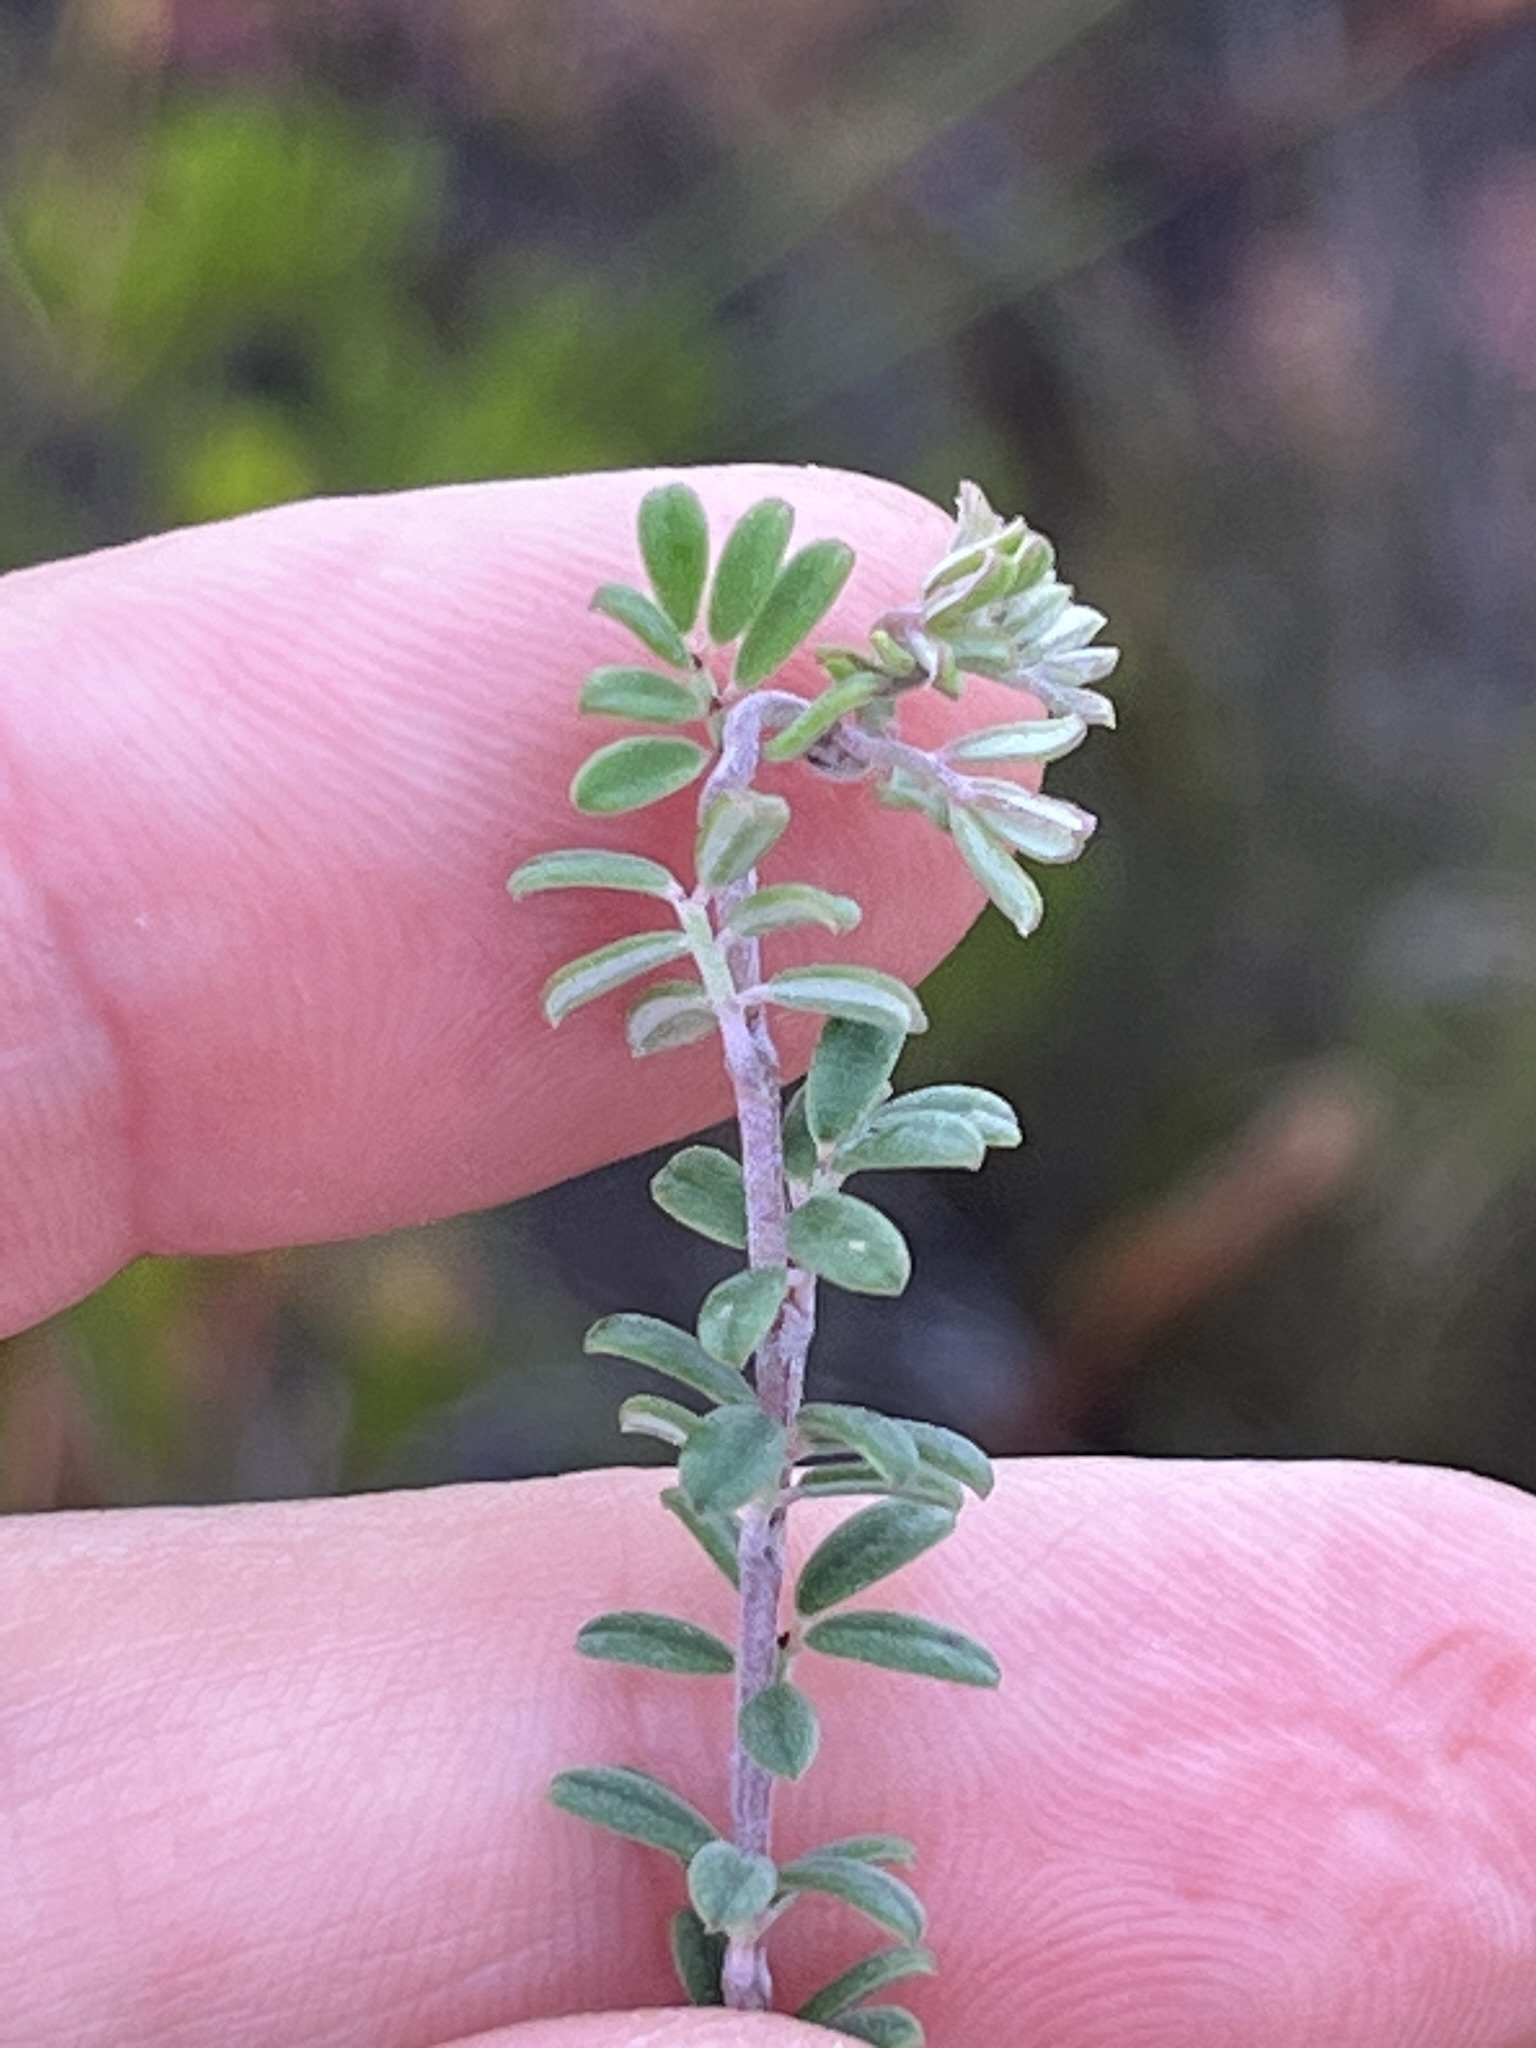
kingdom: Plantae
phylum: Tracheophyta
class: Magnoliopsida
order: Fabales
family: Fabaceae
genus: Indigofera
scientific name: Indigofera
